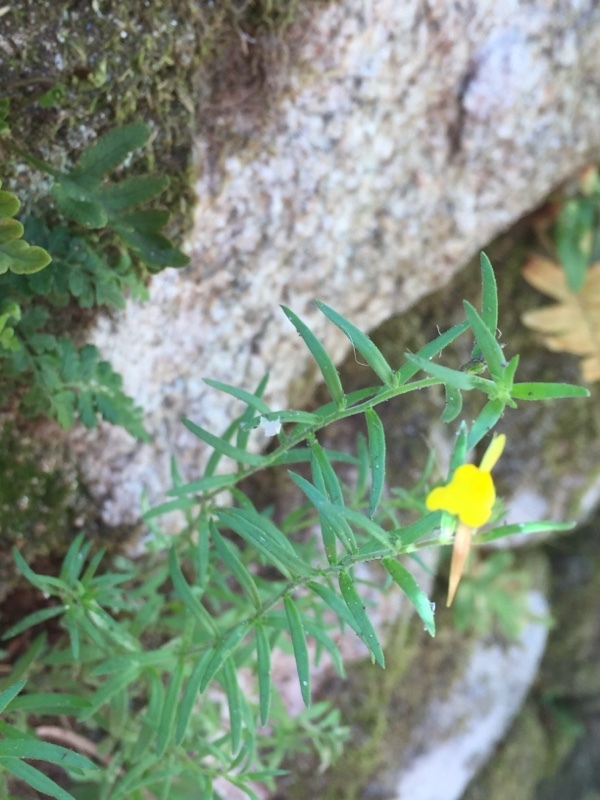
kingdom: Plantae
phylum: Tracheophyta
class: Magnoliopsida
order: Lamiales
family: Plantaginaceae
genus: Linaria
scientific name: Linaria saxatilis
